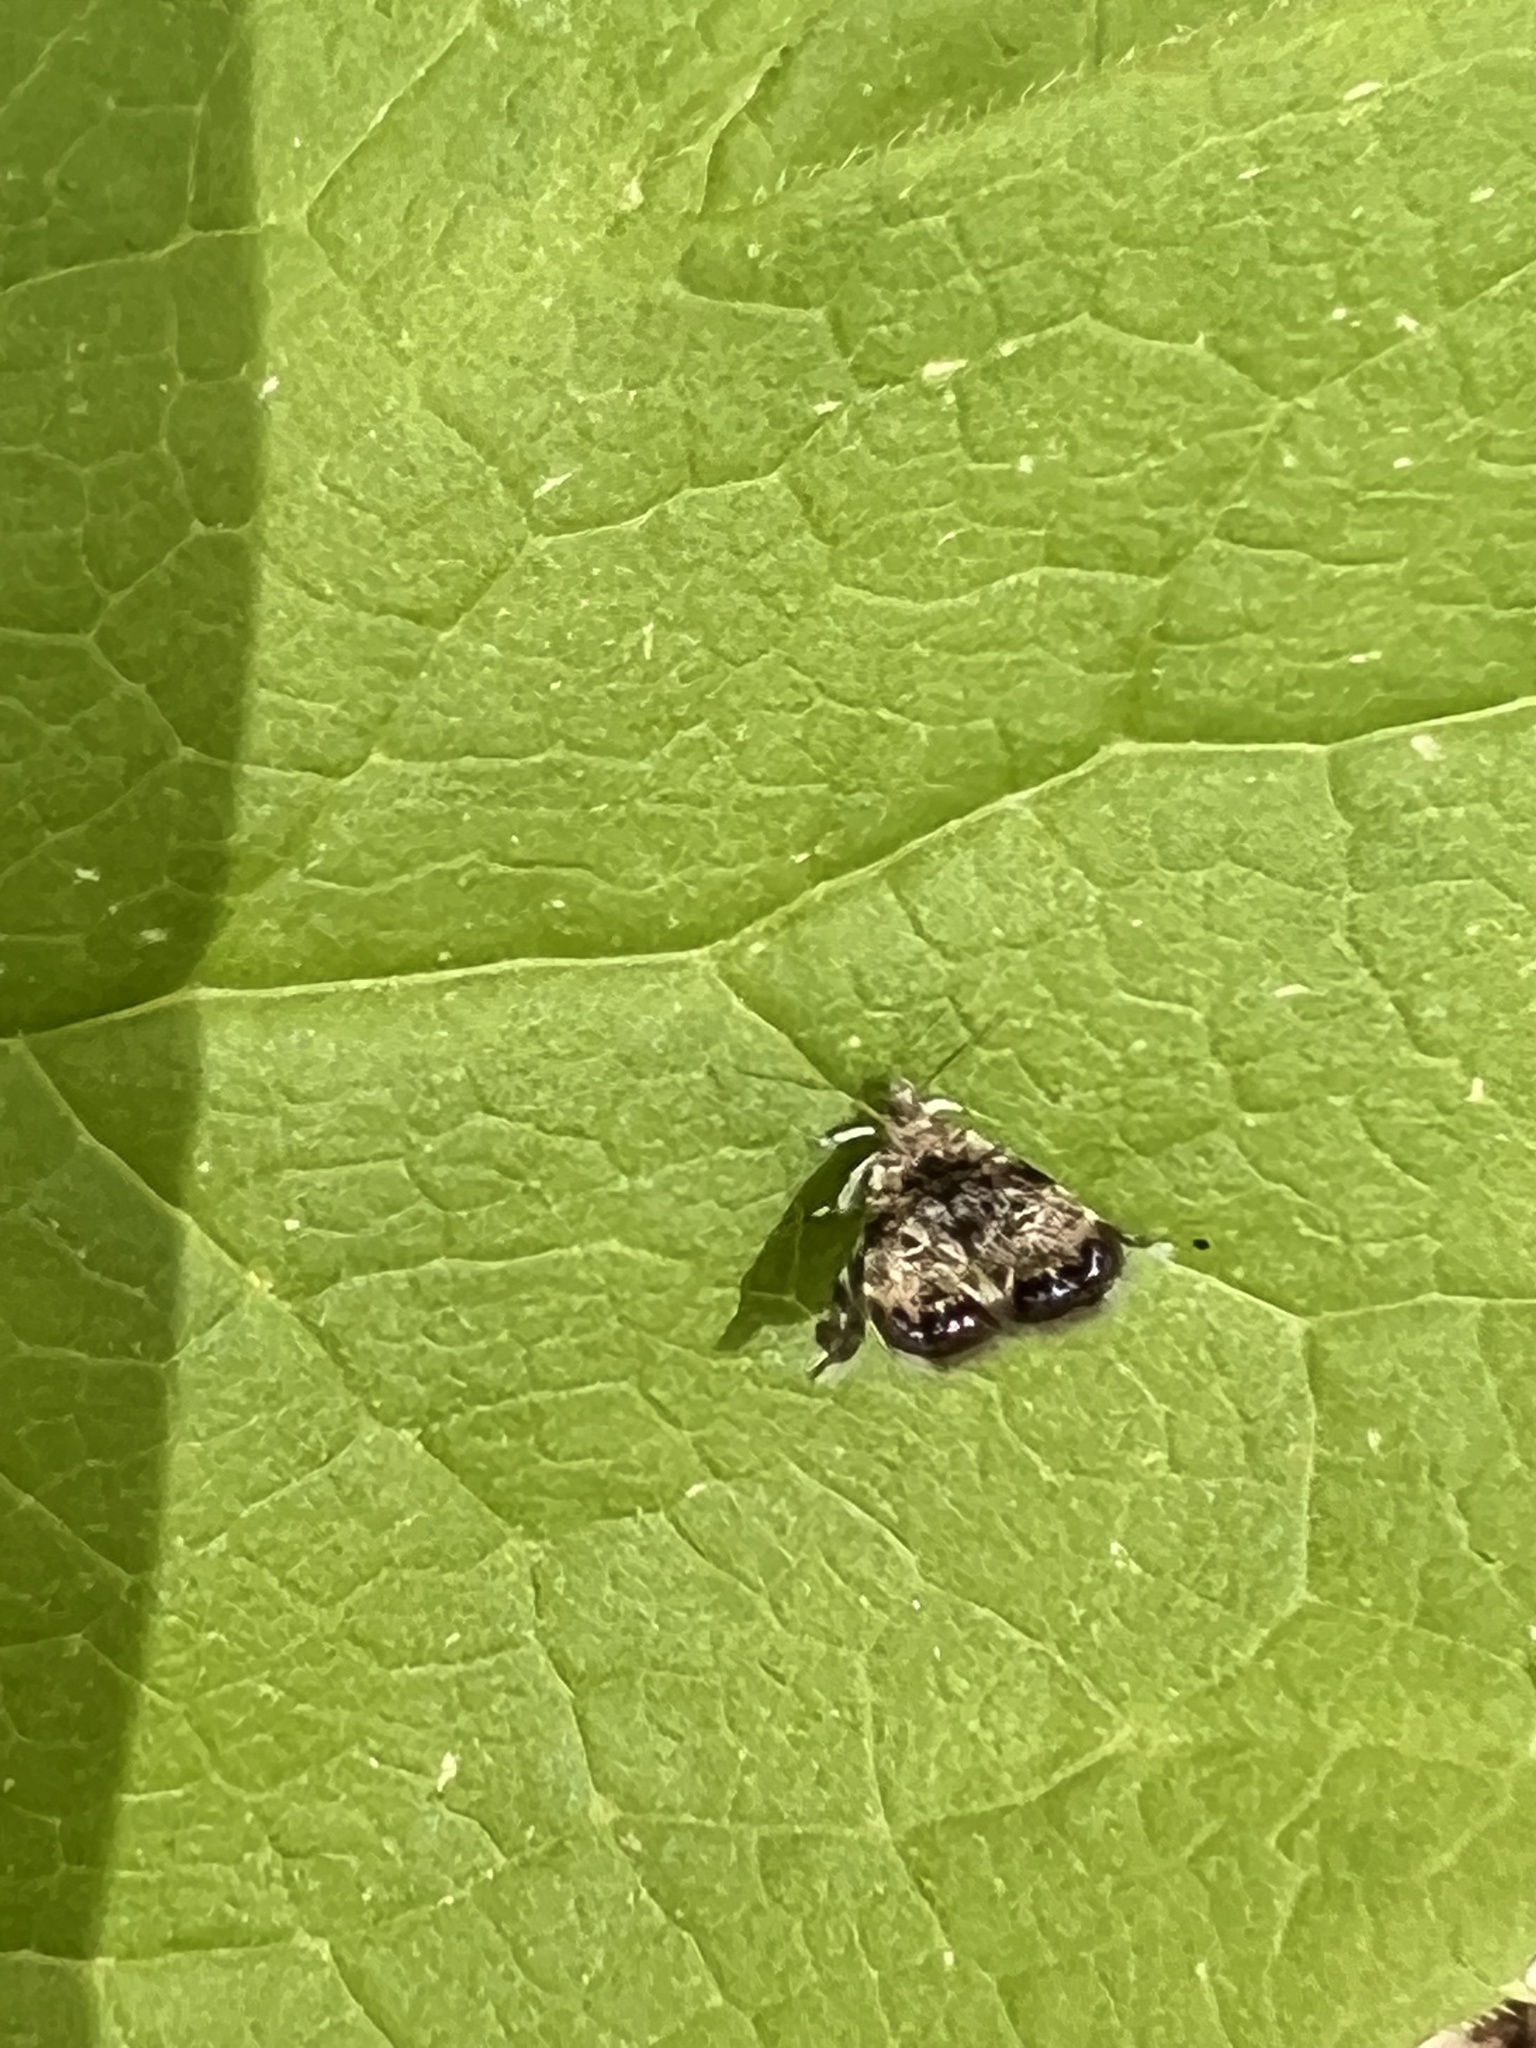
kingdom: Animalia
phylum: Arthropoda
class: Insecta
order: Lepidoptera
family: Choreutidae
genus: Brenthia
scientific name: Brenthia pavonacella
